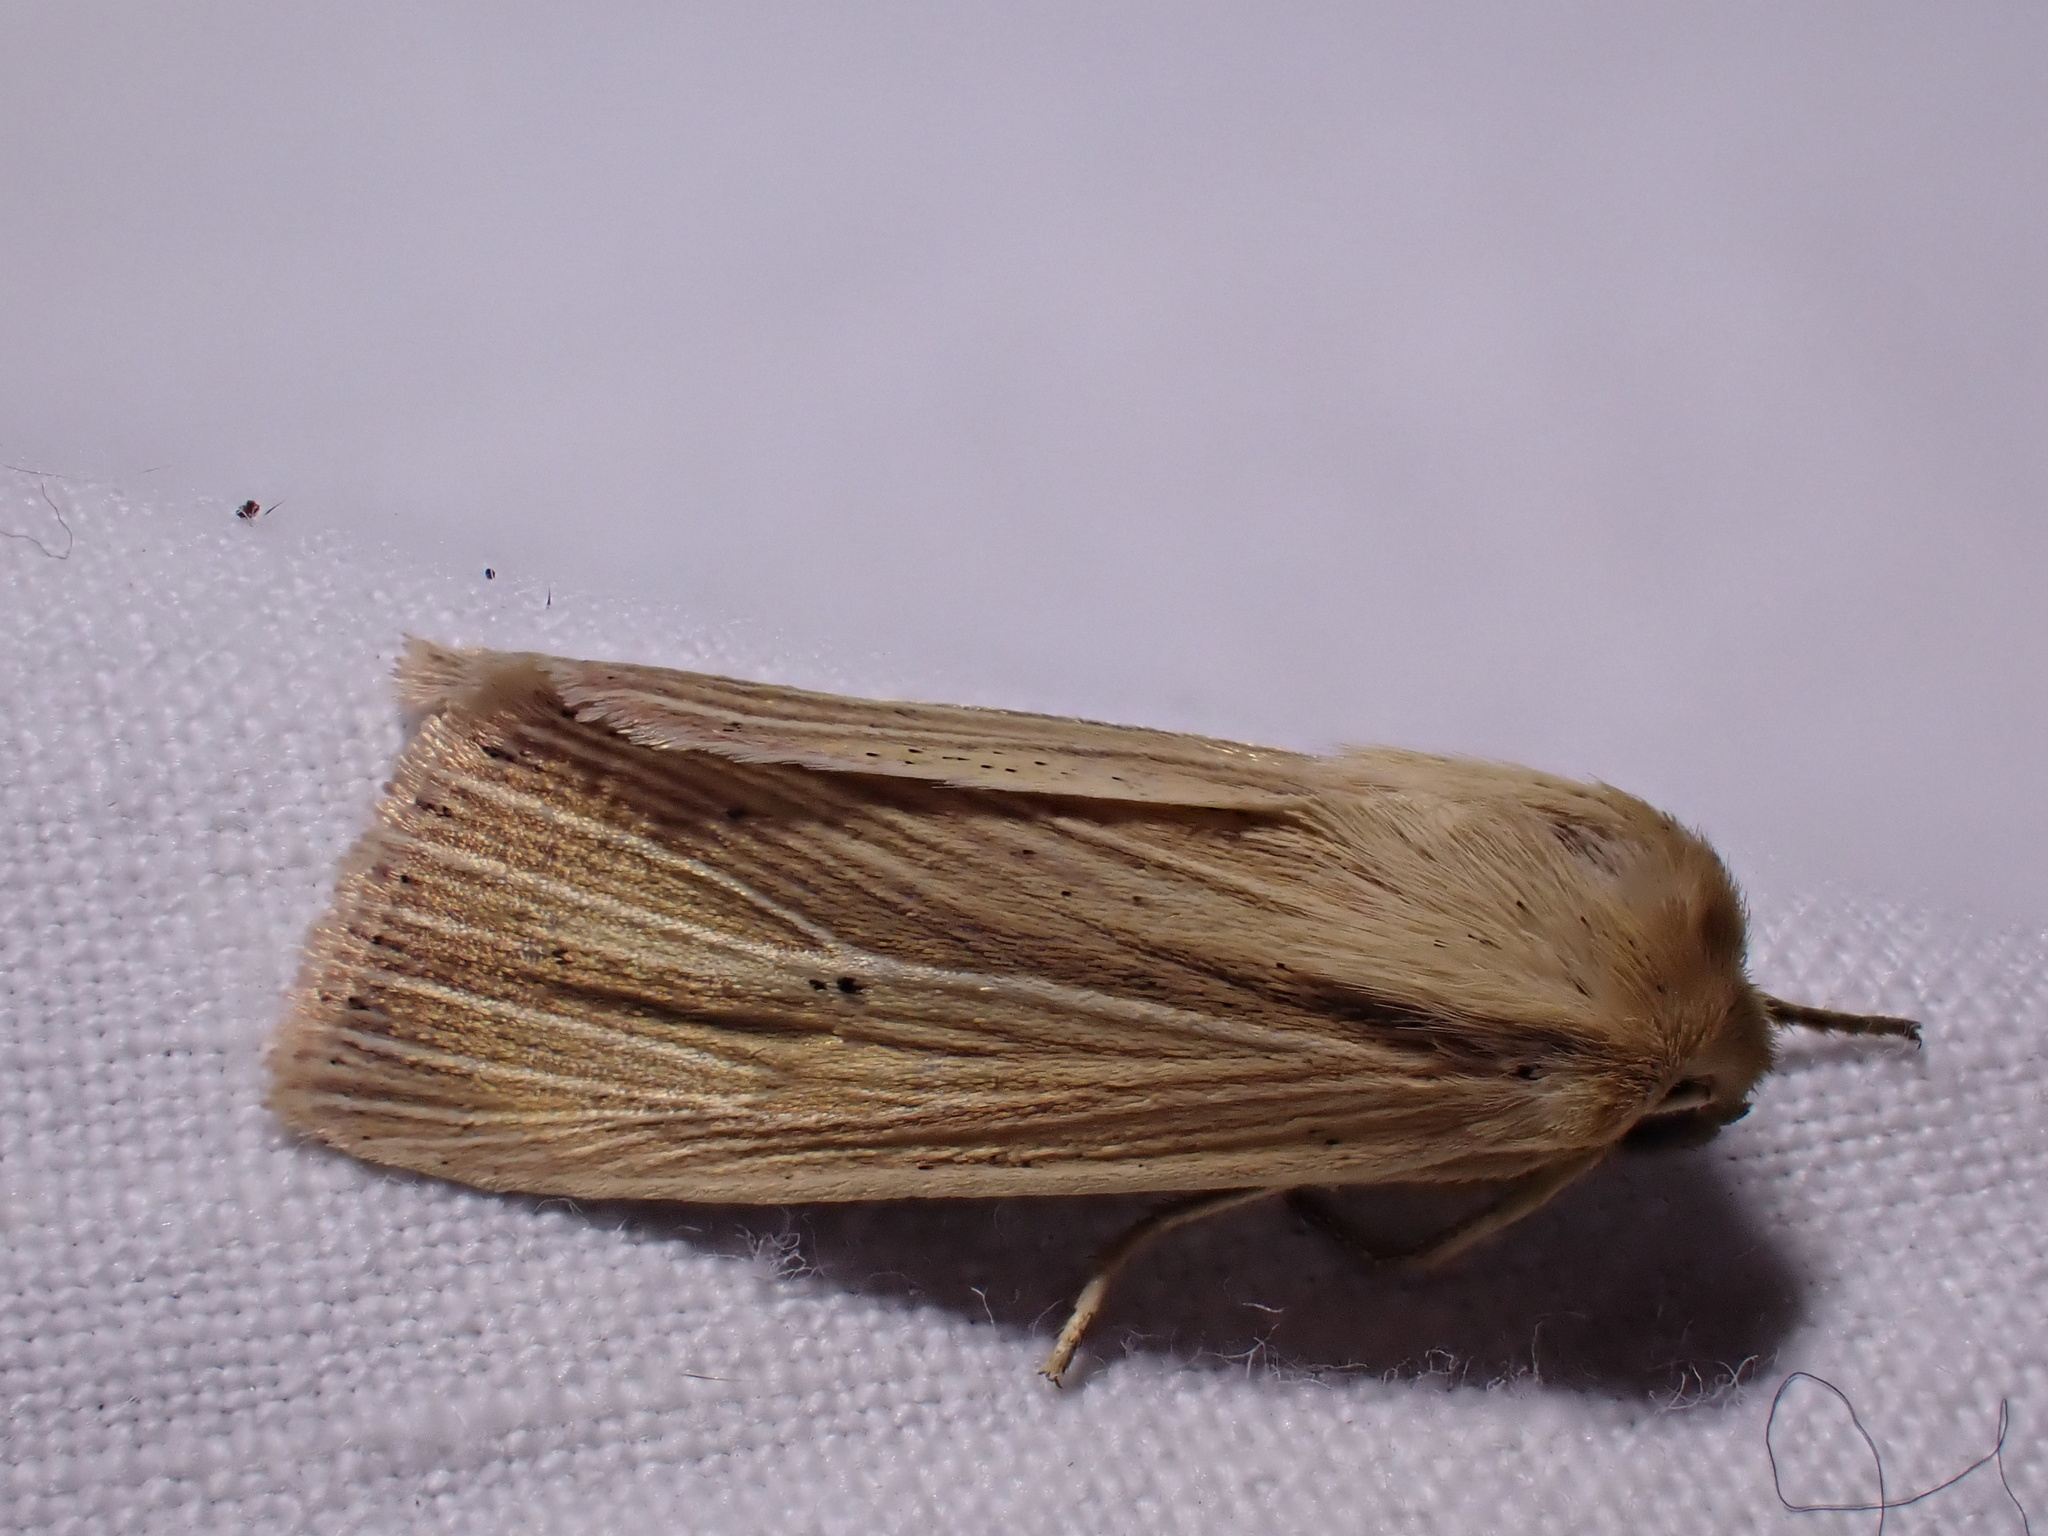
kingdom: Animalia
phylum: Arthropoda
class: Insecta
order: Lepidoptera
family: Noctuidae
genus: Mythimna
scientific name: Mythimna impura
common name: Smoky wainscot
